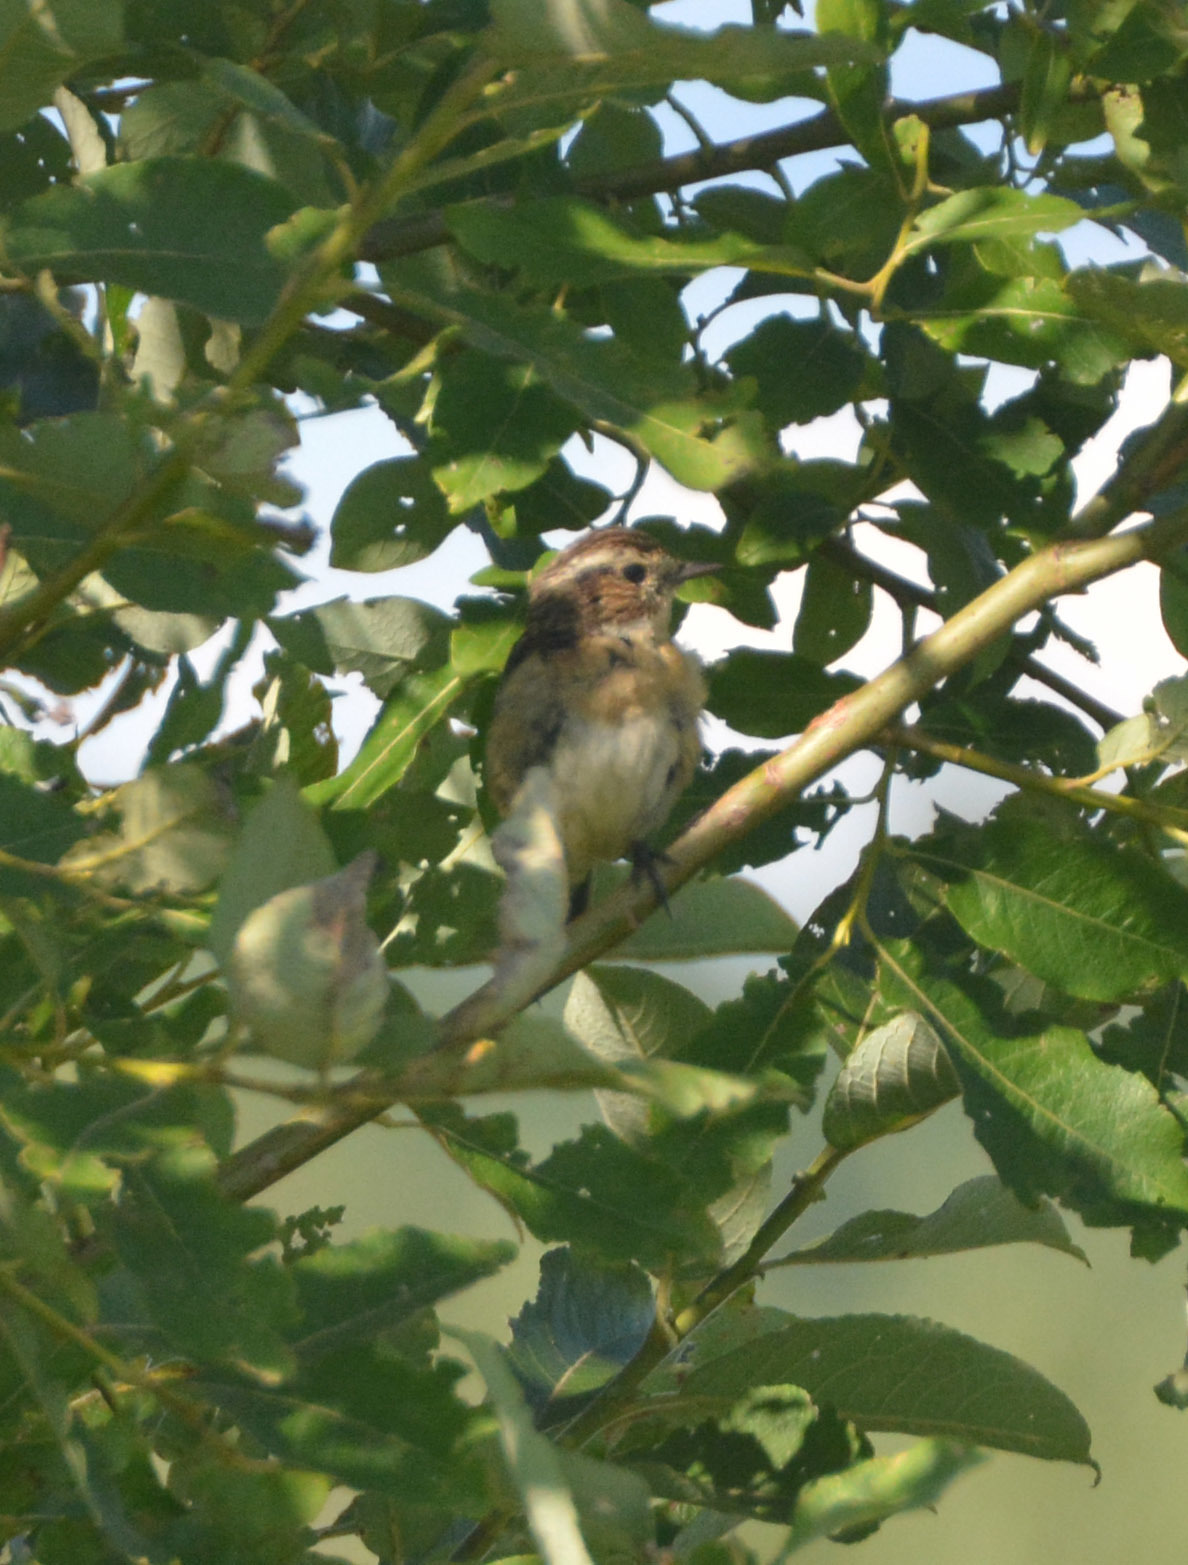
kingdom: Animalia
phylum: Chordata
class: Aves
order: Passeriformes
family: Muscicapidae
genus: Saxicola
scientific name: Saxicola rubetra
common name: Whinchat
